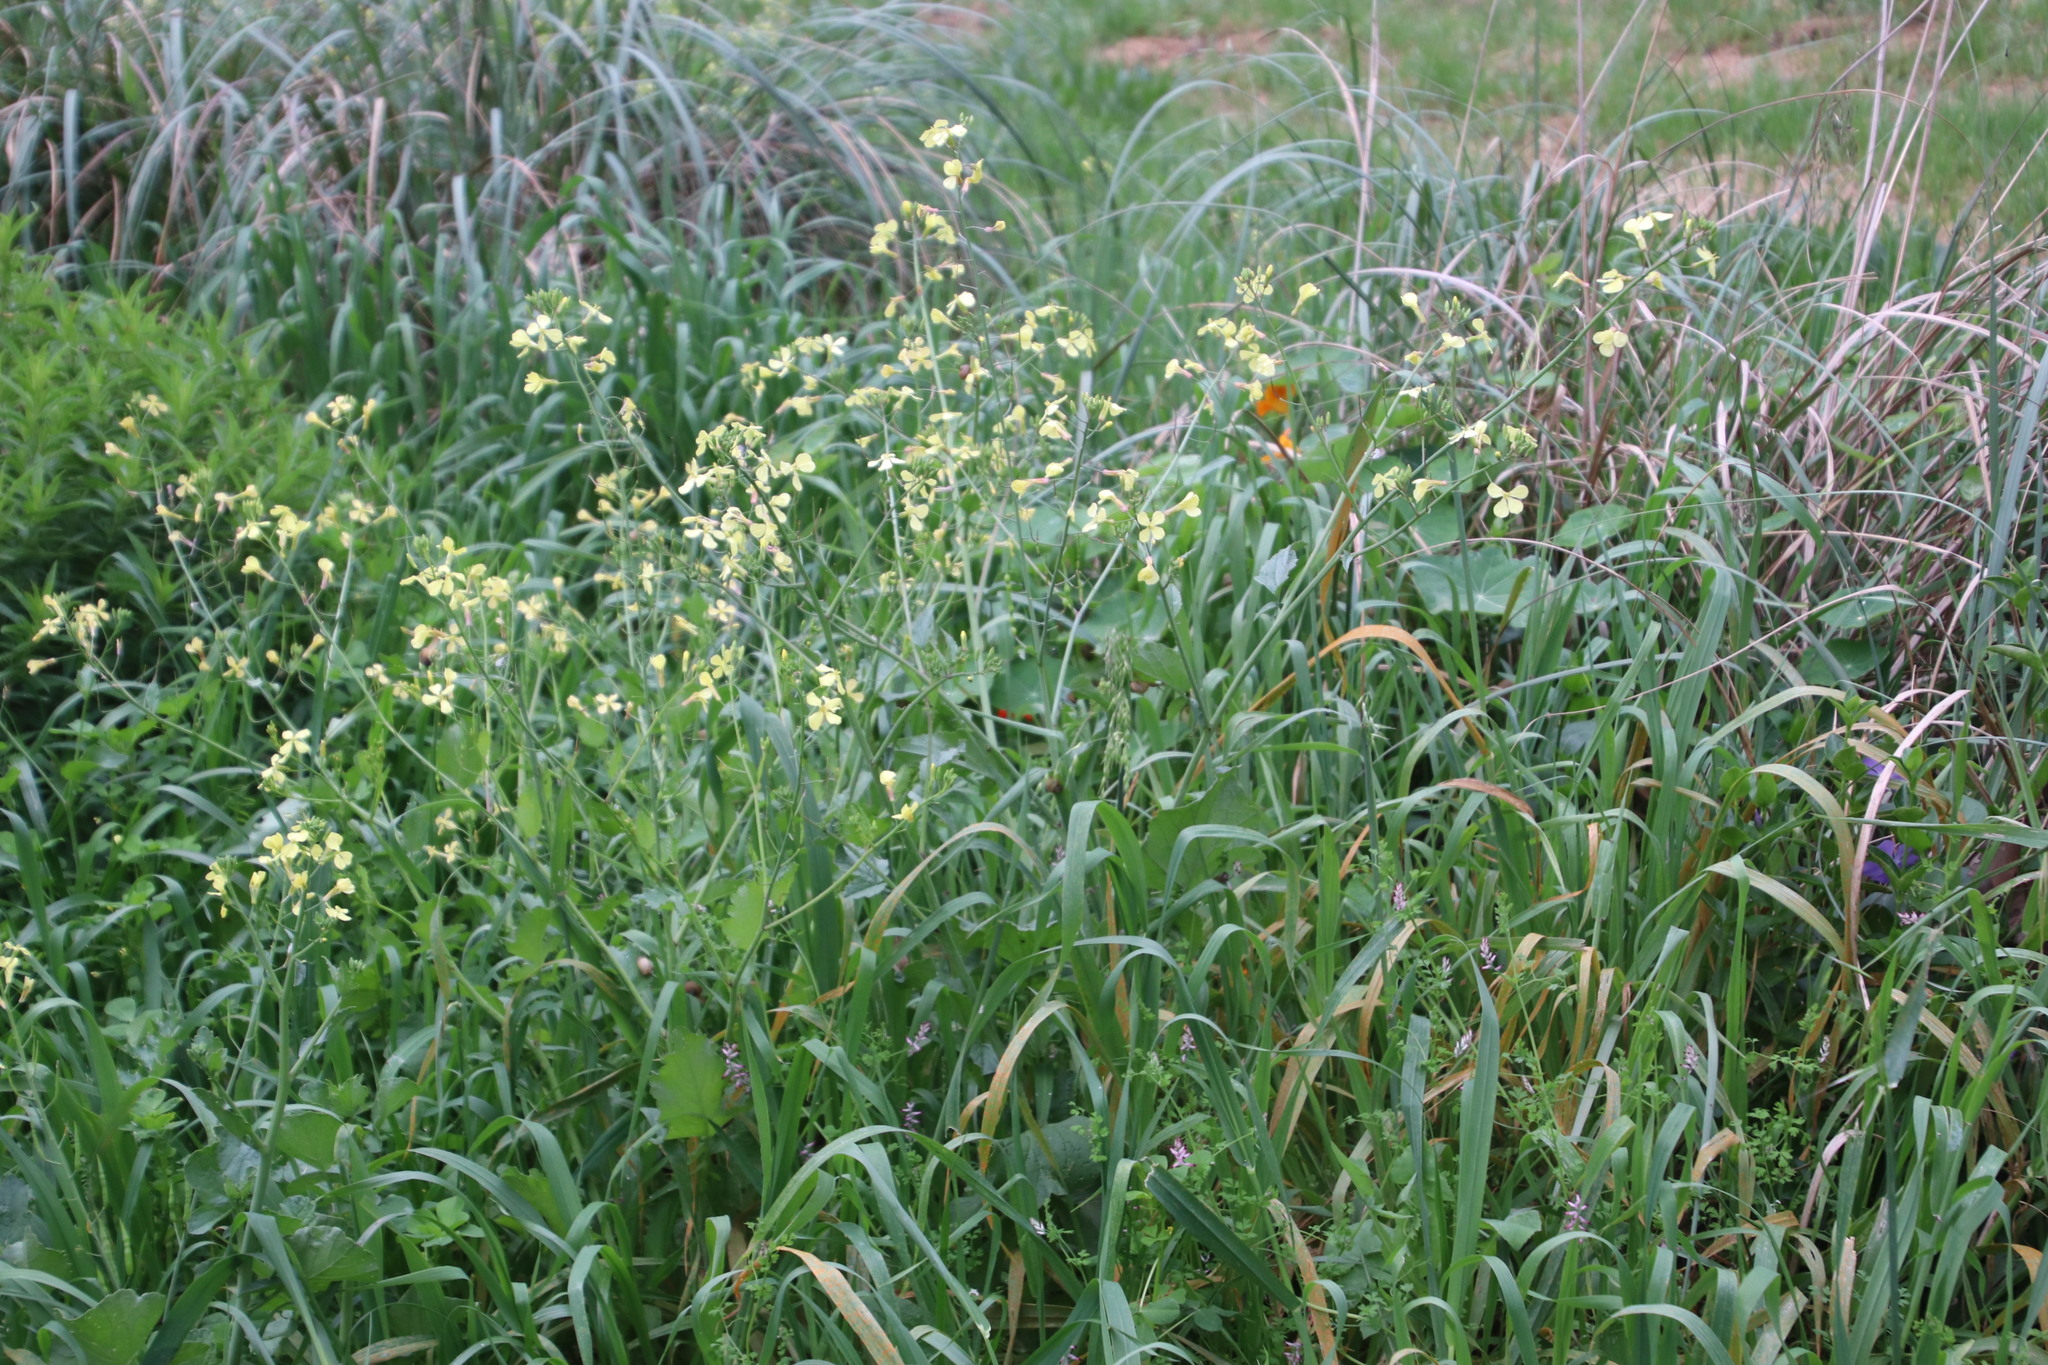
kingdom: Plantae
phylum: Tracheophyta
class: Magnoliopsida
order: Brassicales
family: Brassicaceae
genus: Raphanus
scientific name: Raphanus raphanistrum
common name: Wild radish
